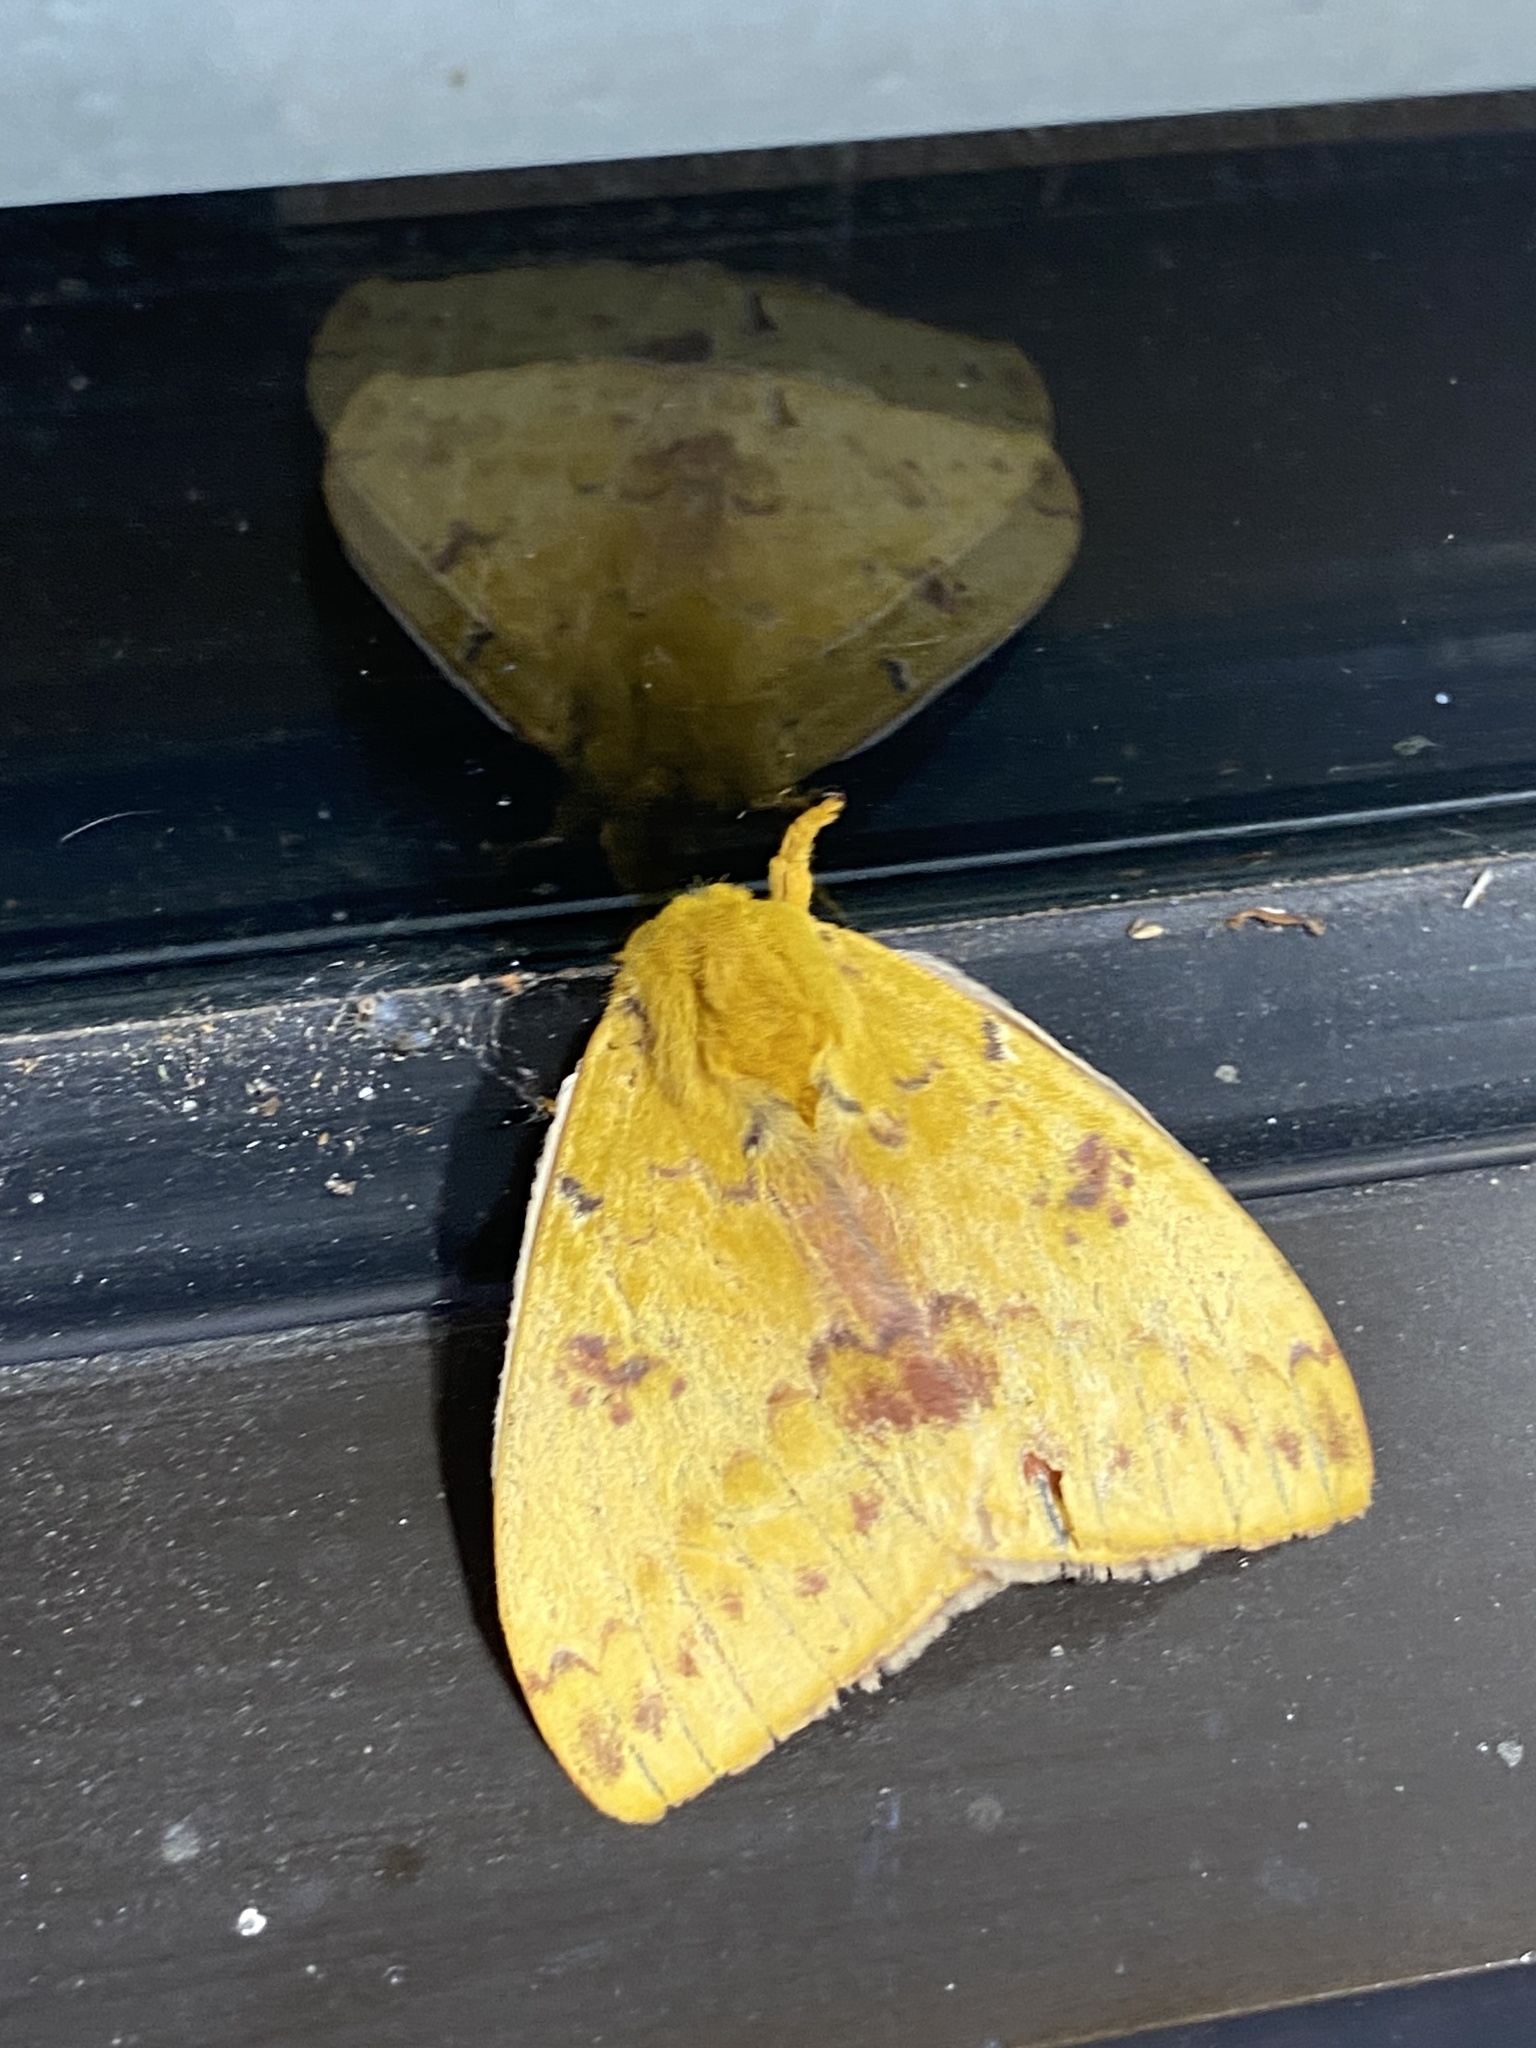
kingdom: Animalia
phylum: Arthropoda
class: Insecta
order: Lepidoptera
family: Saturniidae
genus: Automeris
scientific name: Automeris io
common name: Io moth
